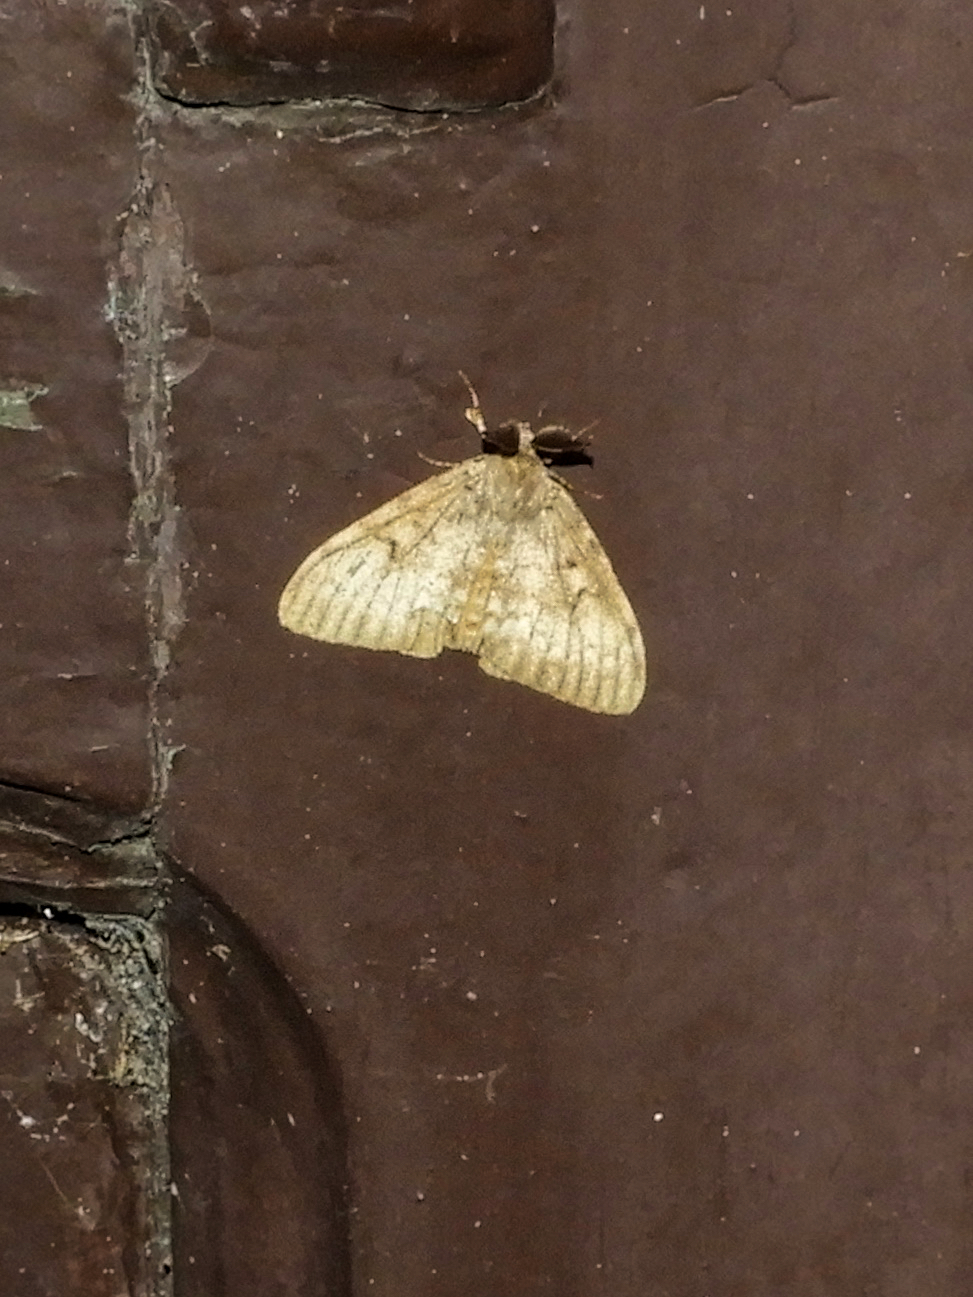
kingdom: Animalia
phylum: Arthropoda
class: Insecta
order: Lepidoptera
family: Erebidae
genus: Lymantria
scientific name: Lymantria dispar
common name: Gypsy moth
